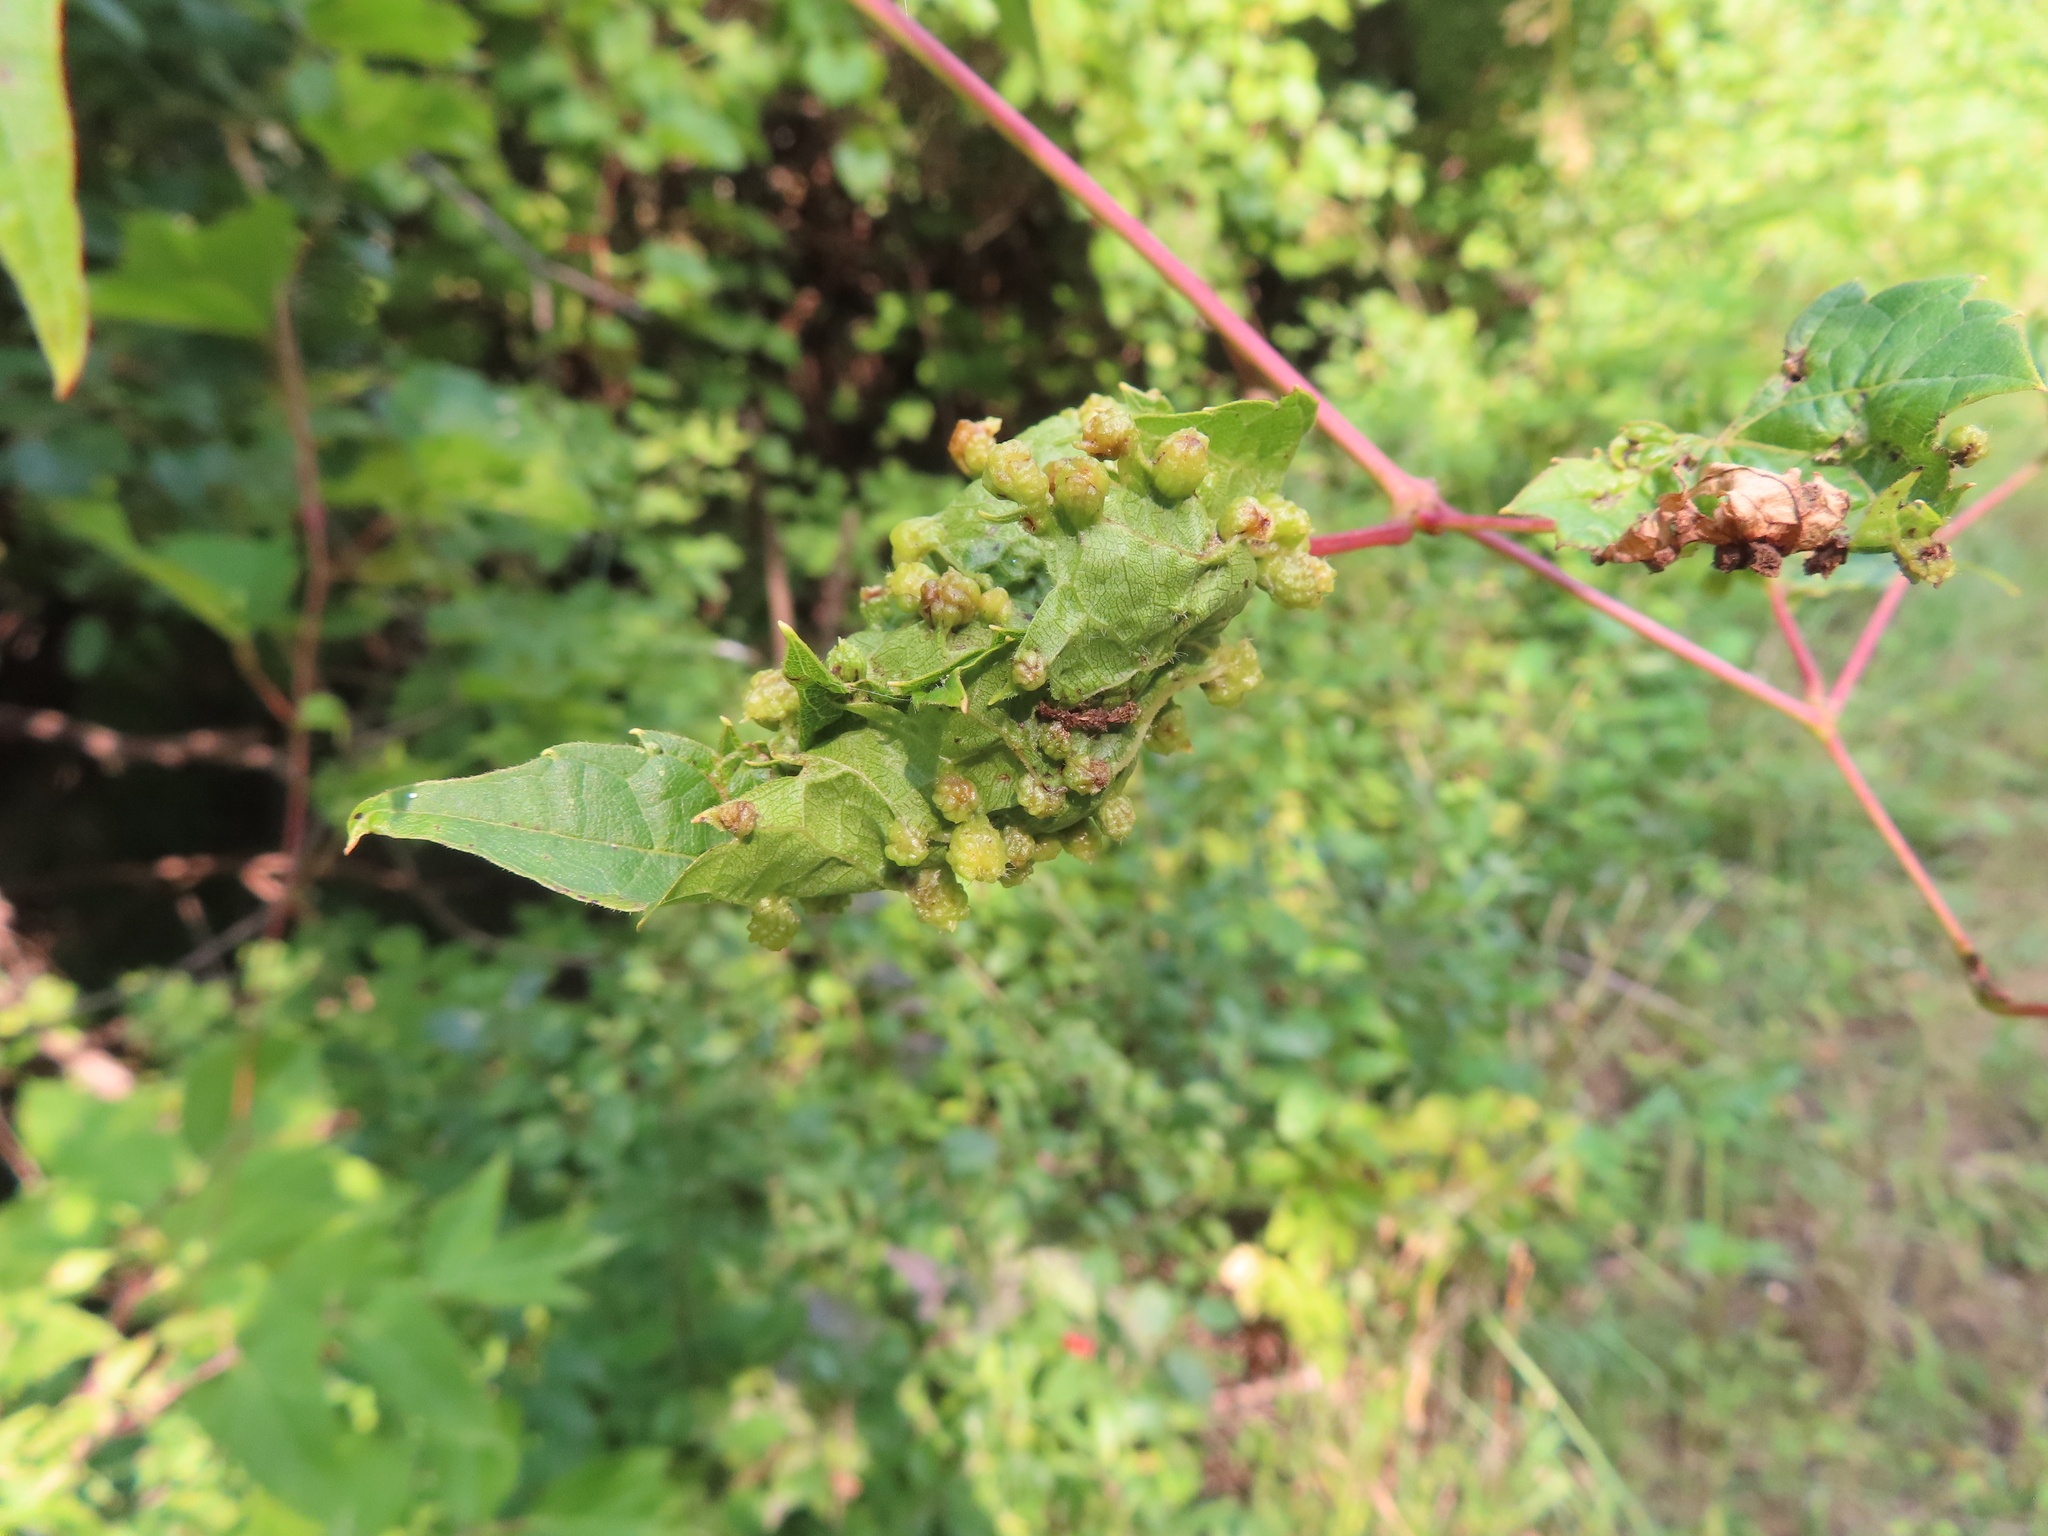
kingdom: Animalia
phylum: Arthropoda
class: Insecta
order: Hemiptera
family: Phylloxeridae
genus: Daktulosphaira
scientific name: Daktulosphaira vitifoliae
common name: Grape phylloxera
